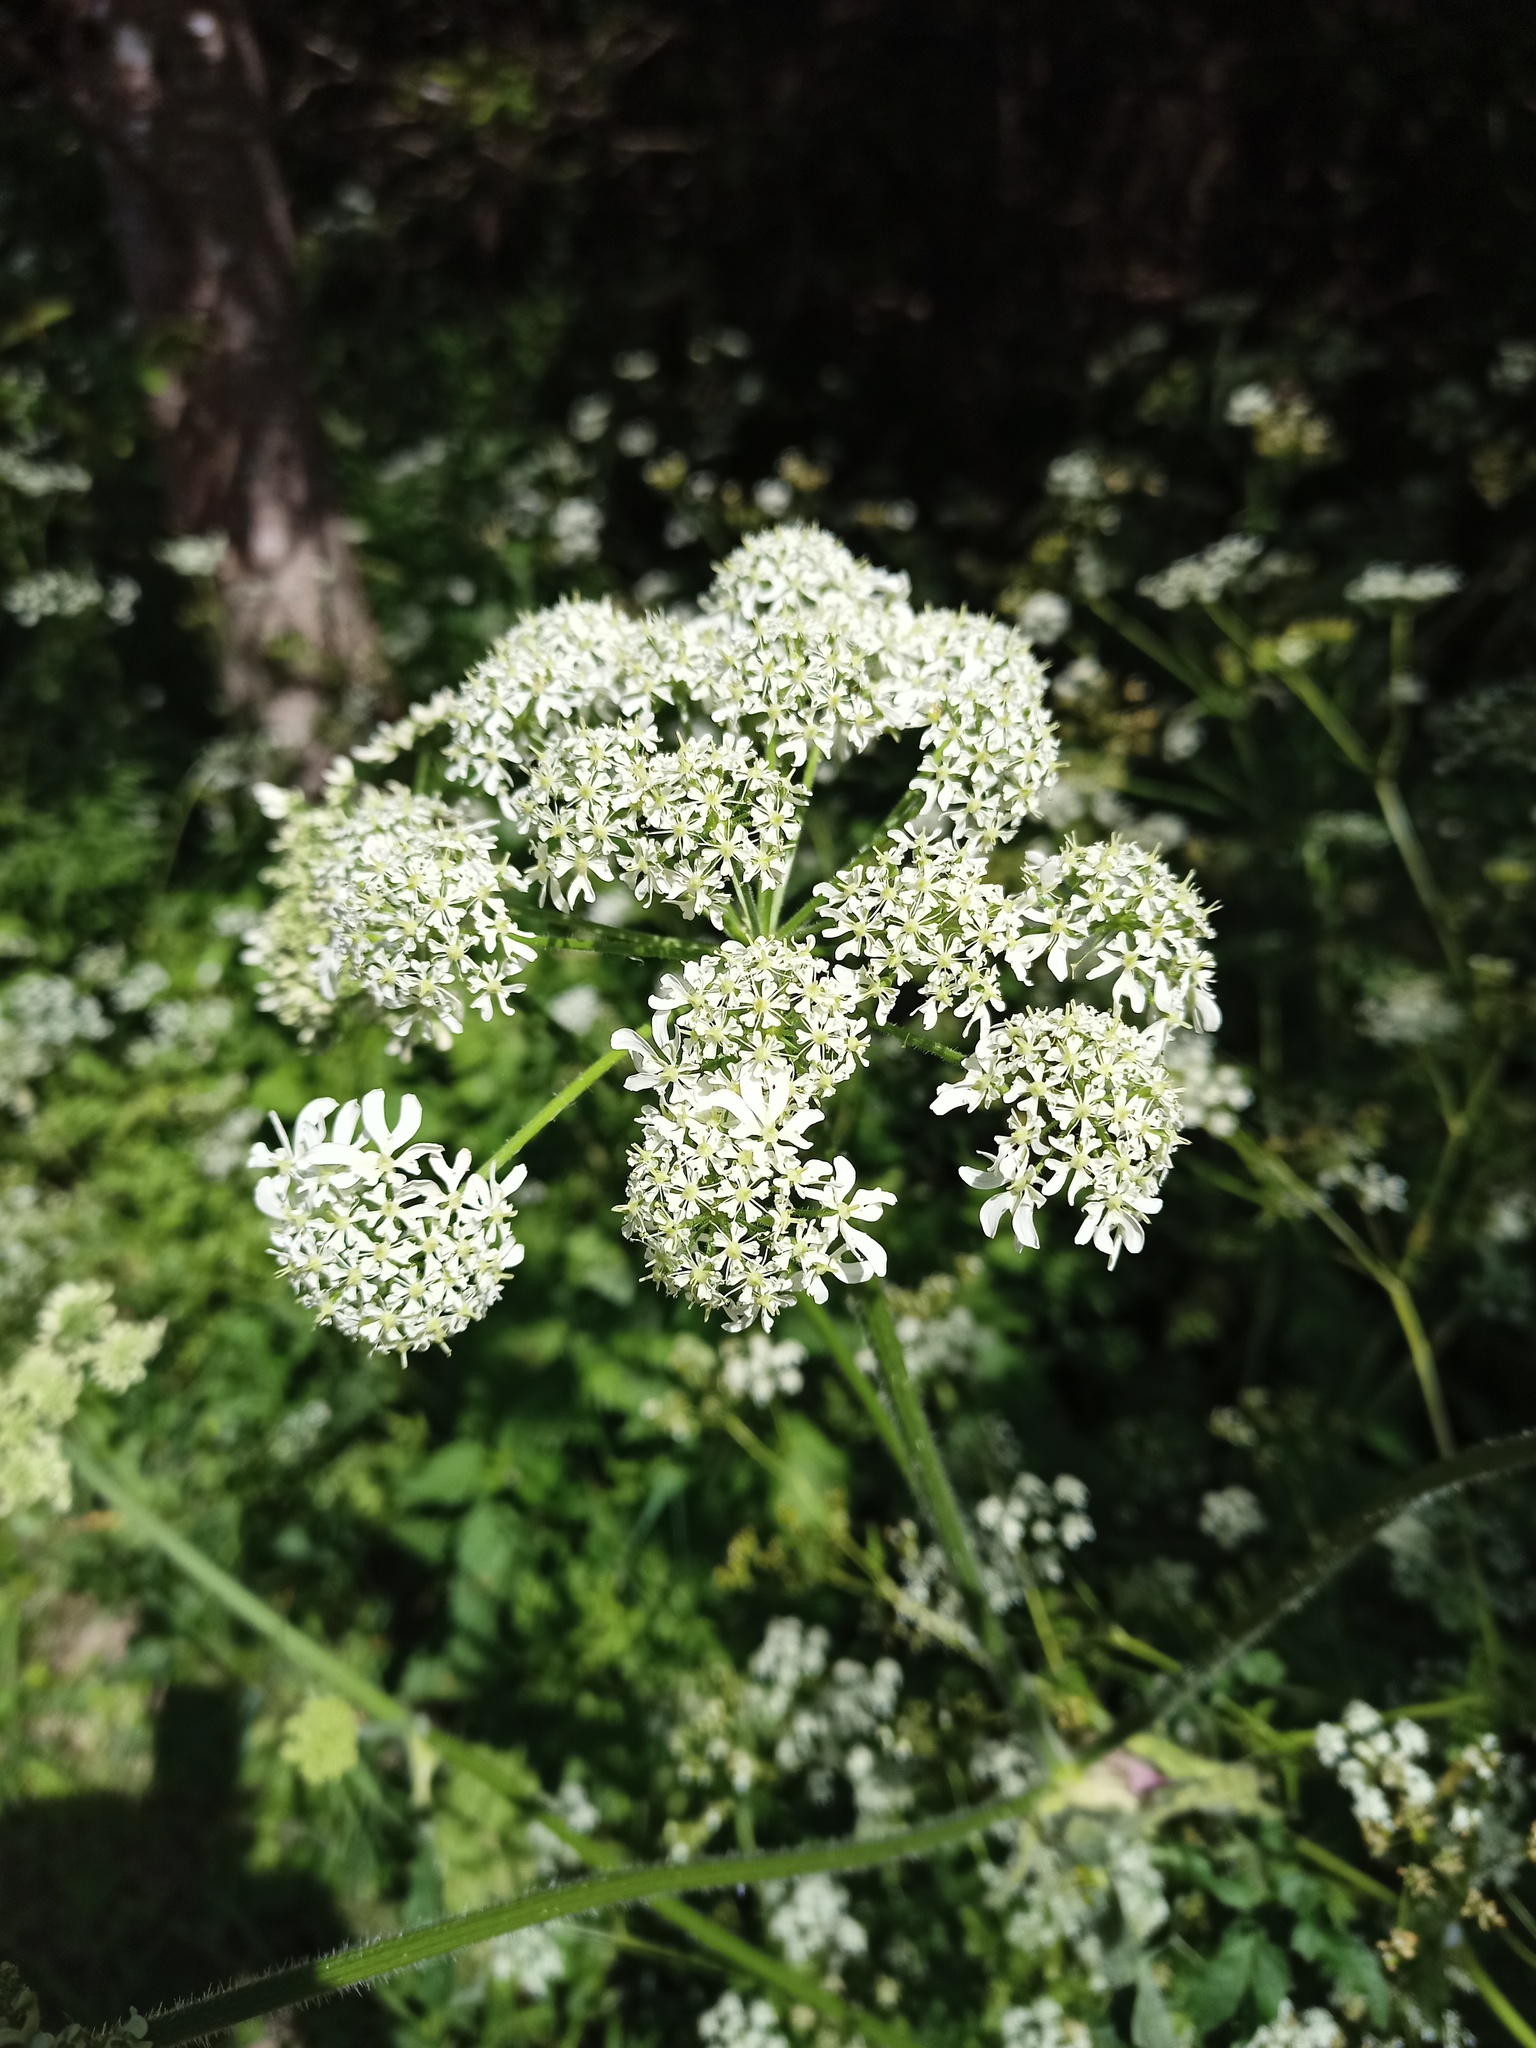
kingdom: Plantae
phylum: Tracheophyta
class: Magnoliopsida
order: Apiales
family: Apiaceae
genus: Heracleum
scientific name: Heracleum sphondylium
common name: Hogweed
